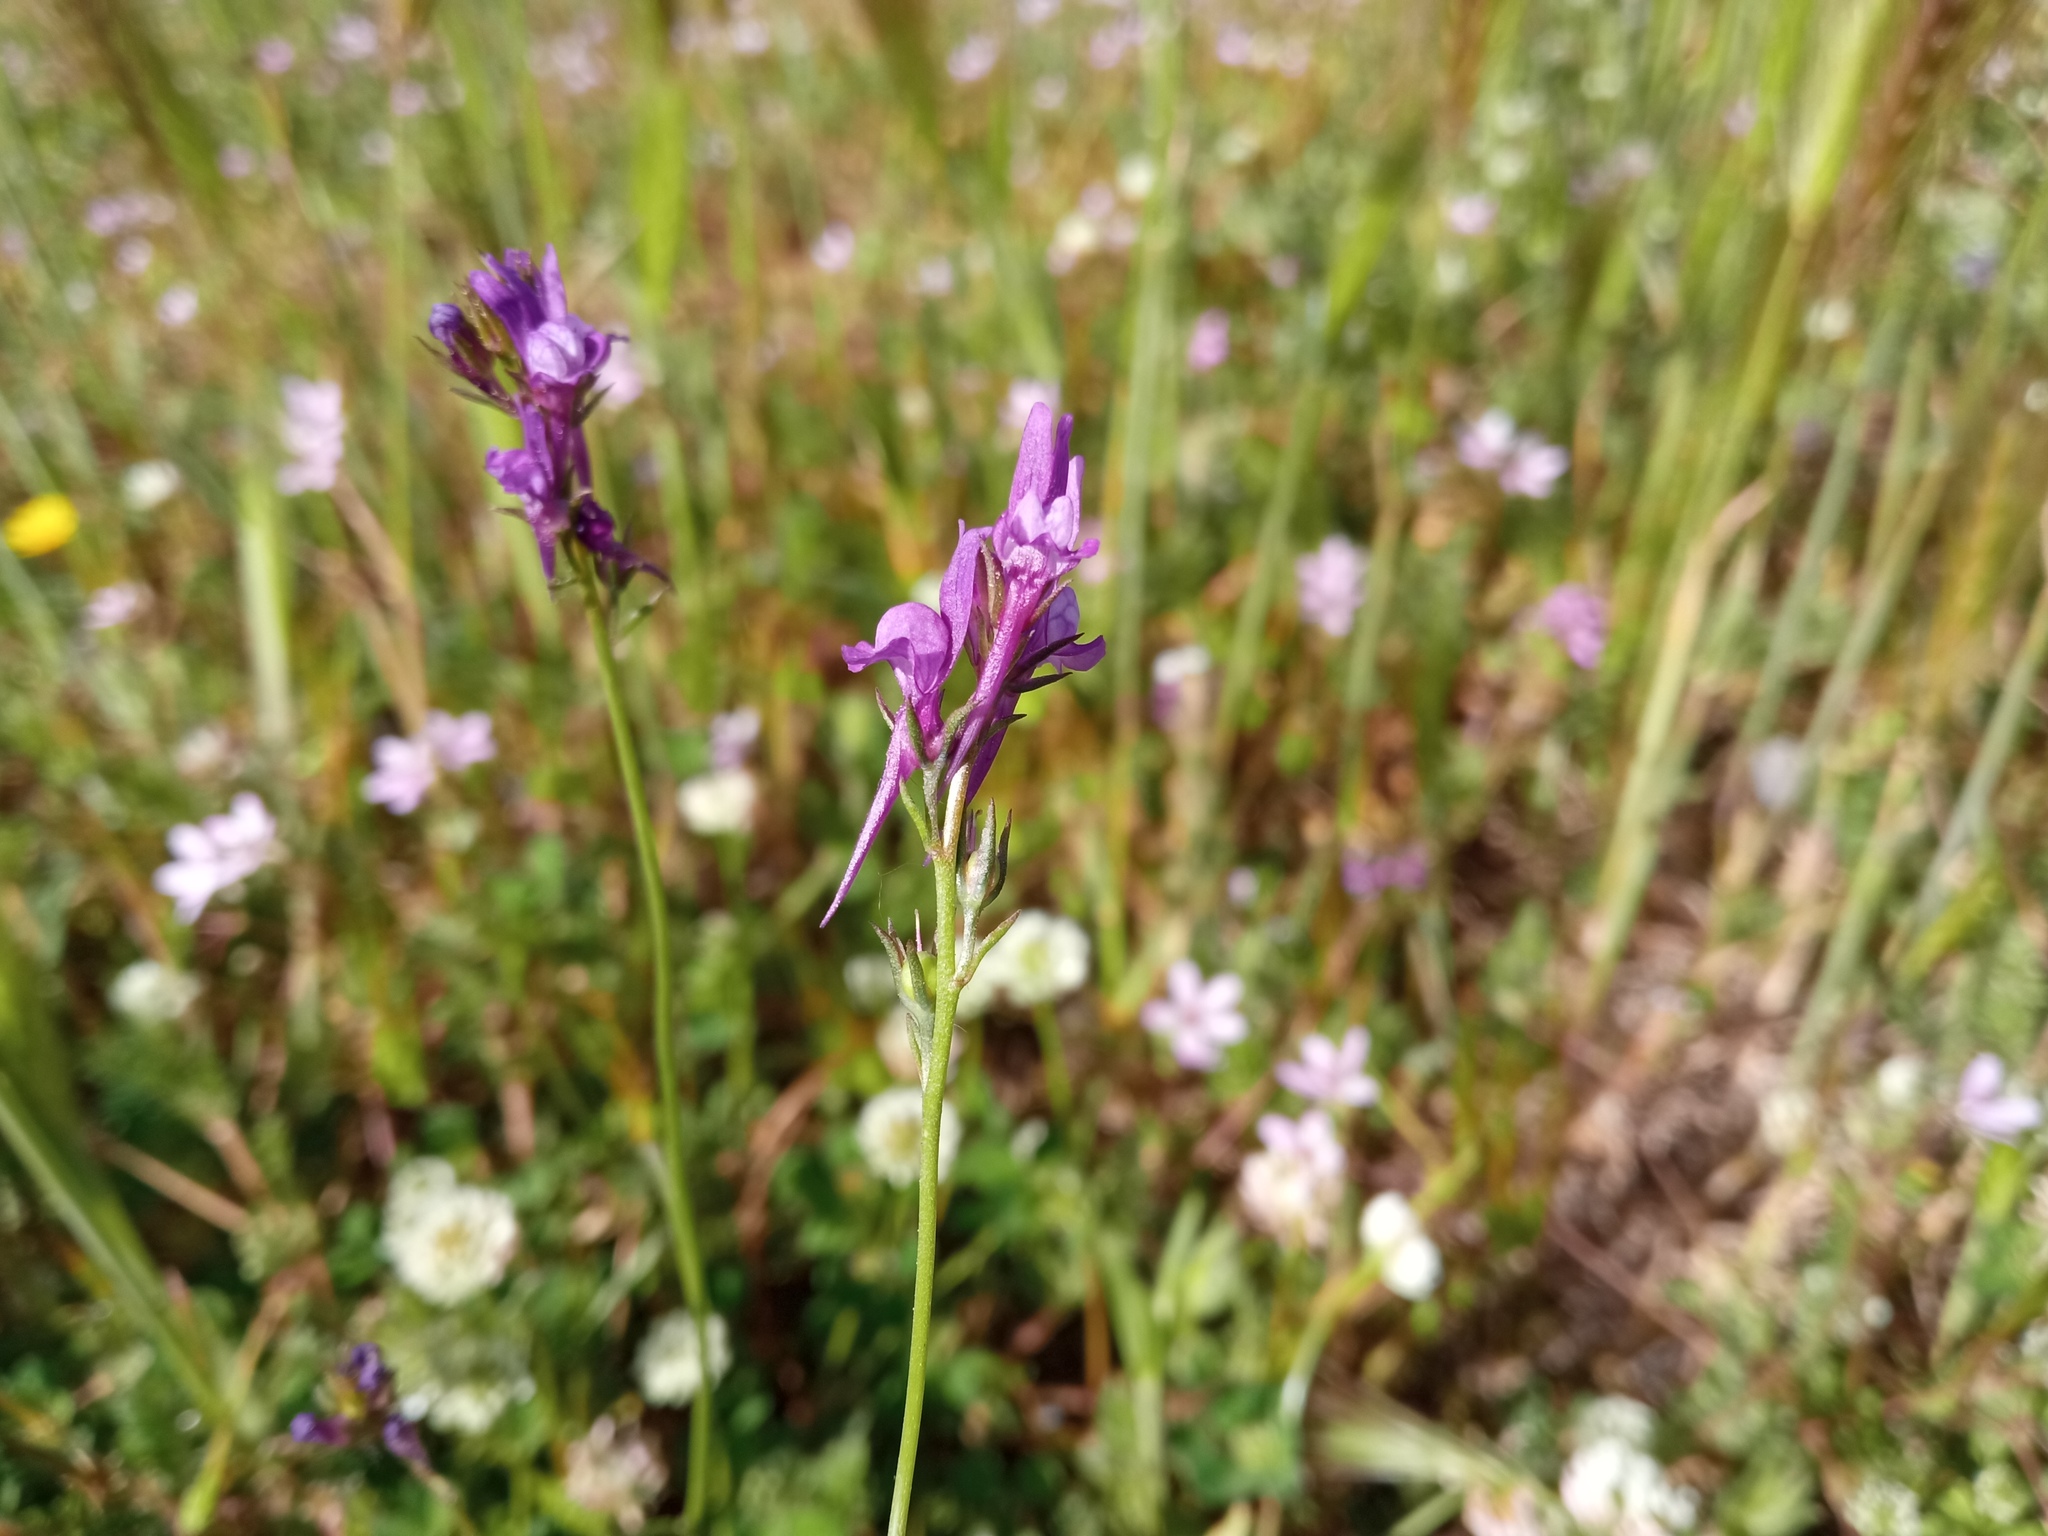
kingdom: Plantae
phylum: Tracheophyta
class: Magnoliopsida
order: Lamiales
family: Plantaginaceae
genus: Linaria
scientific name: Linaria pelisseriana
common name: Jersey toadflax
